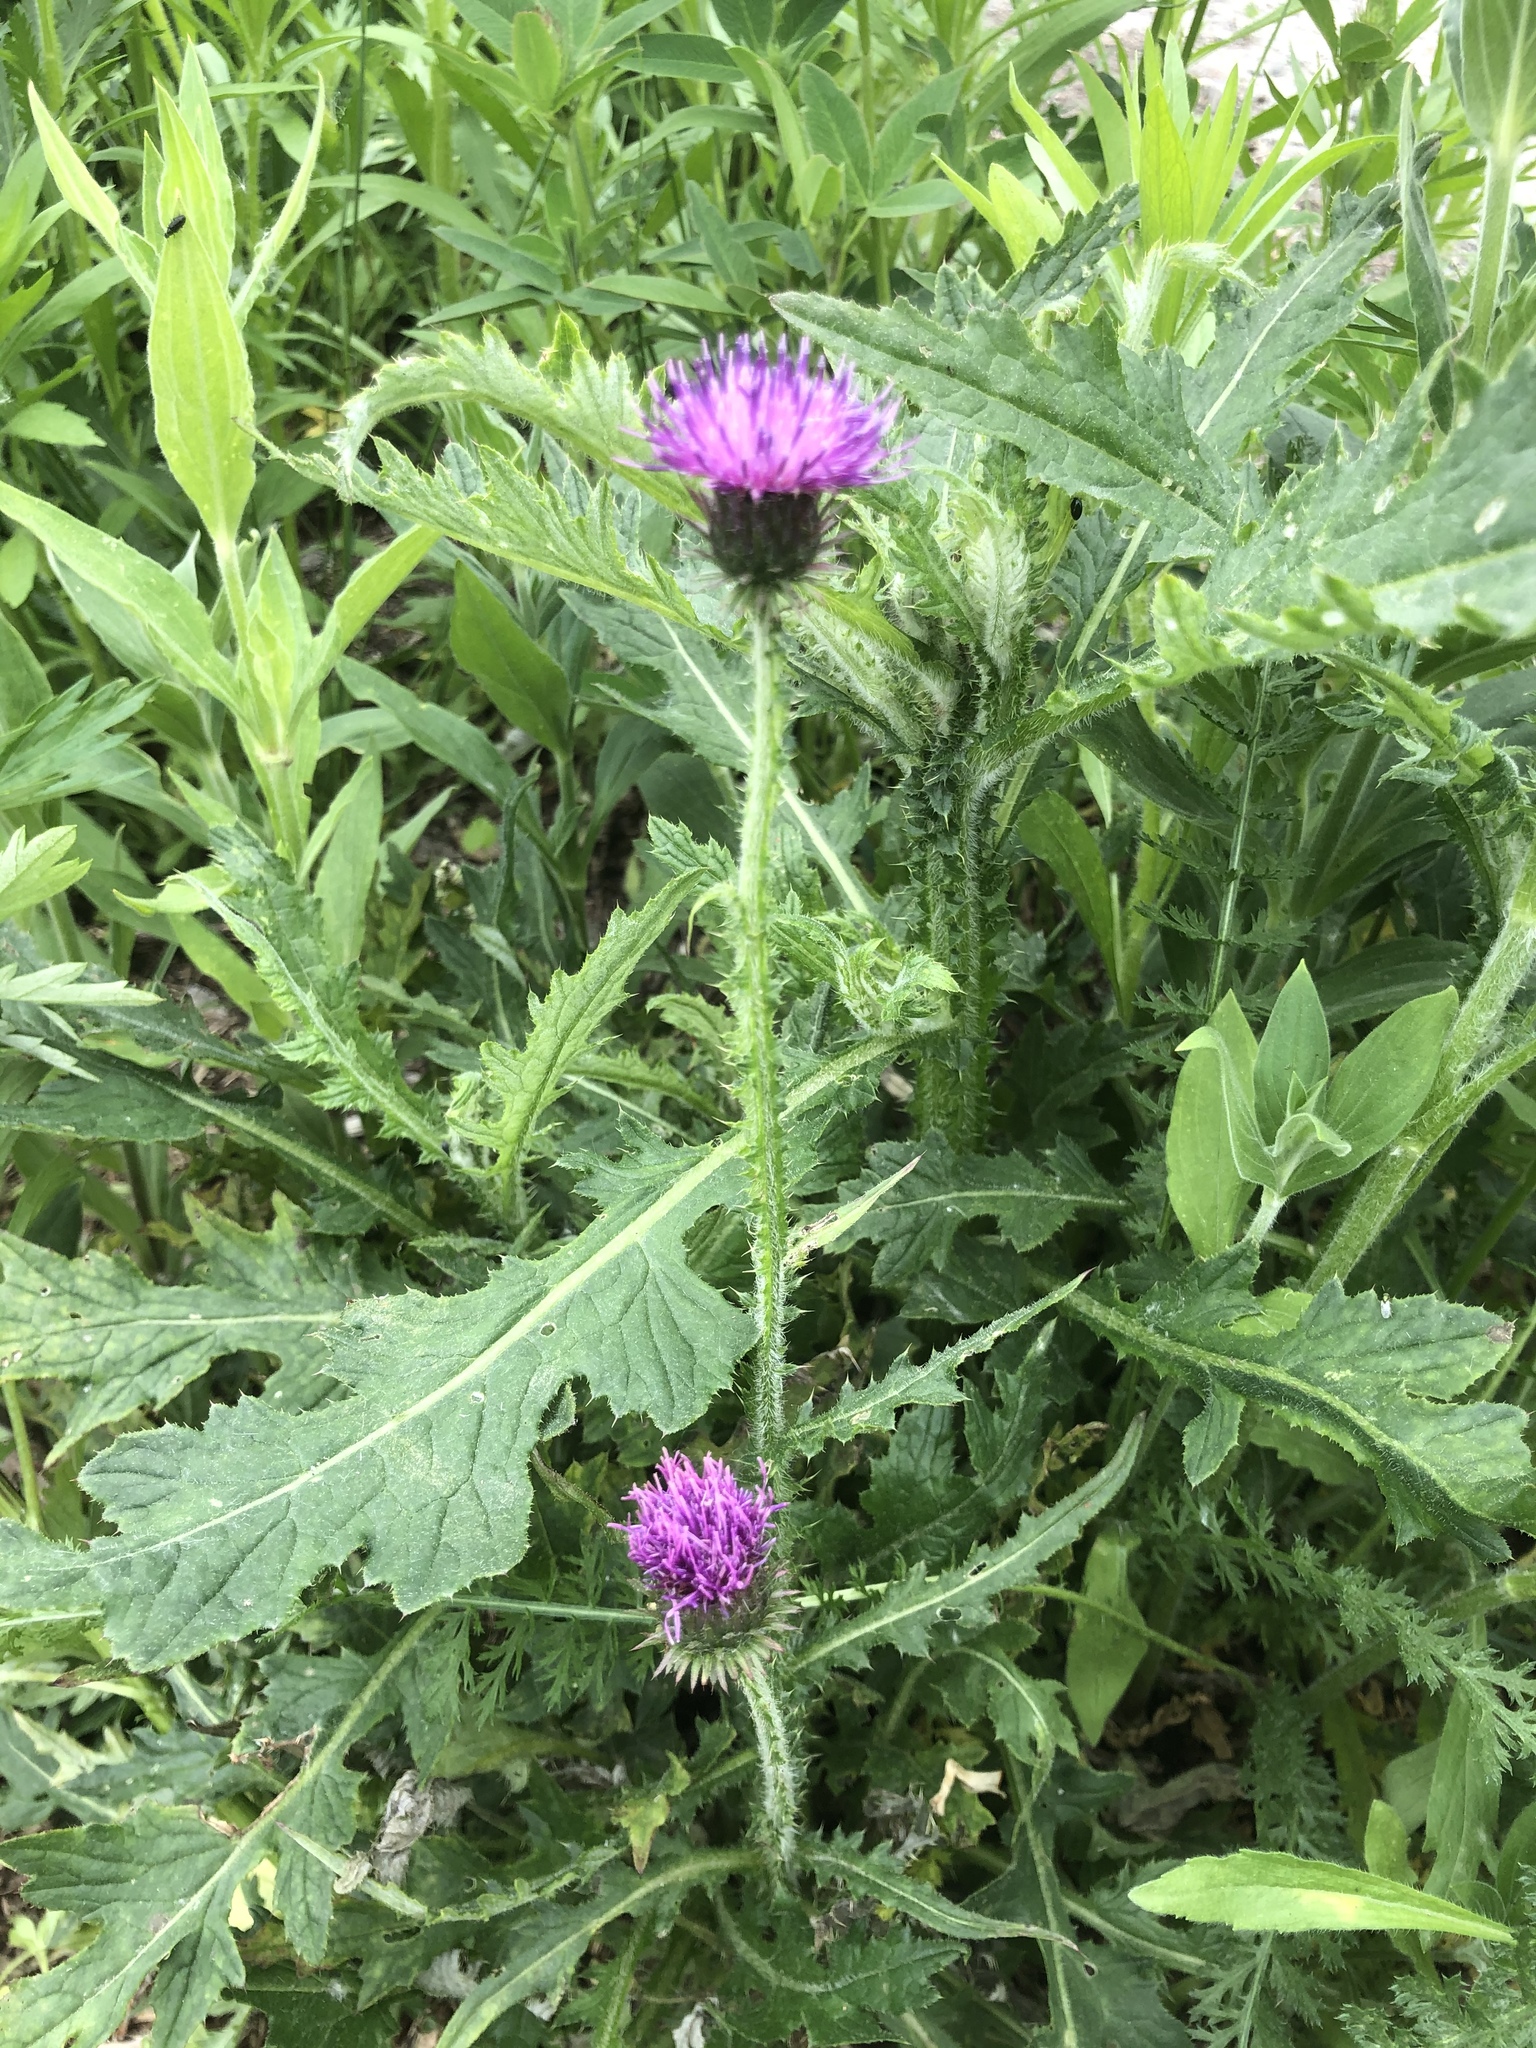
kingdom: Plantae
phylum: Tracheophyta
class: Magnoliopsida
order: Asterales
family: Asteraceae
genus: Carduus
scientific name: Carduus crispus
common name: Welted thistle
